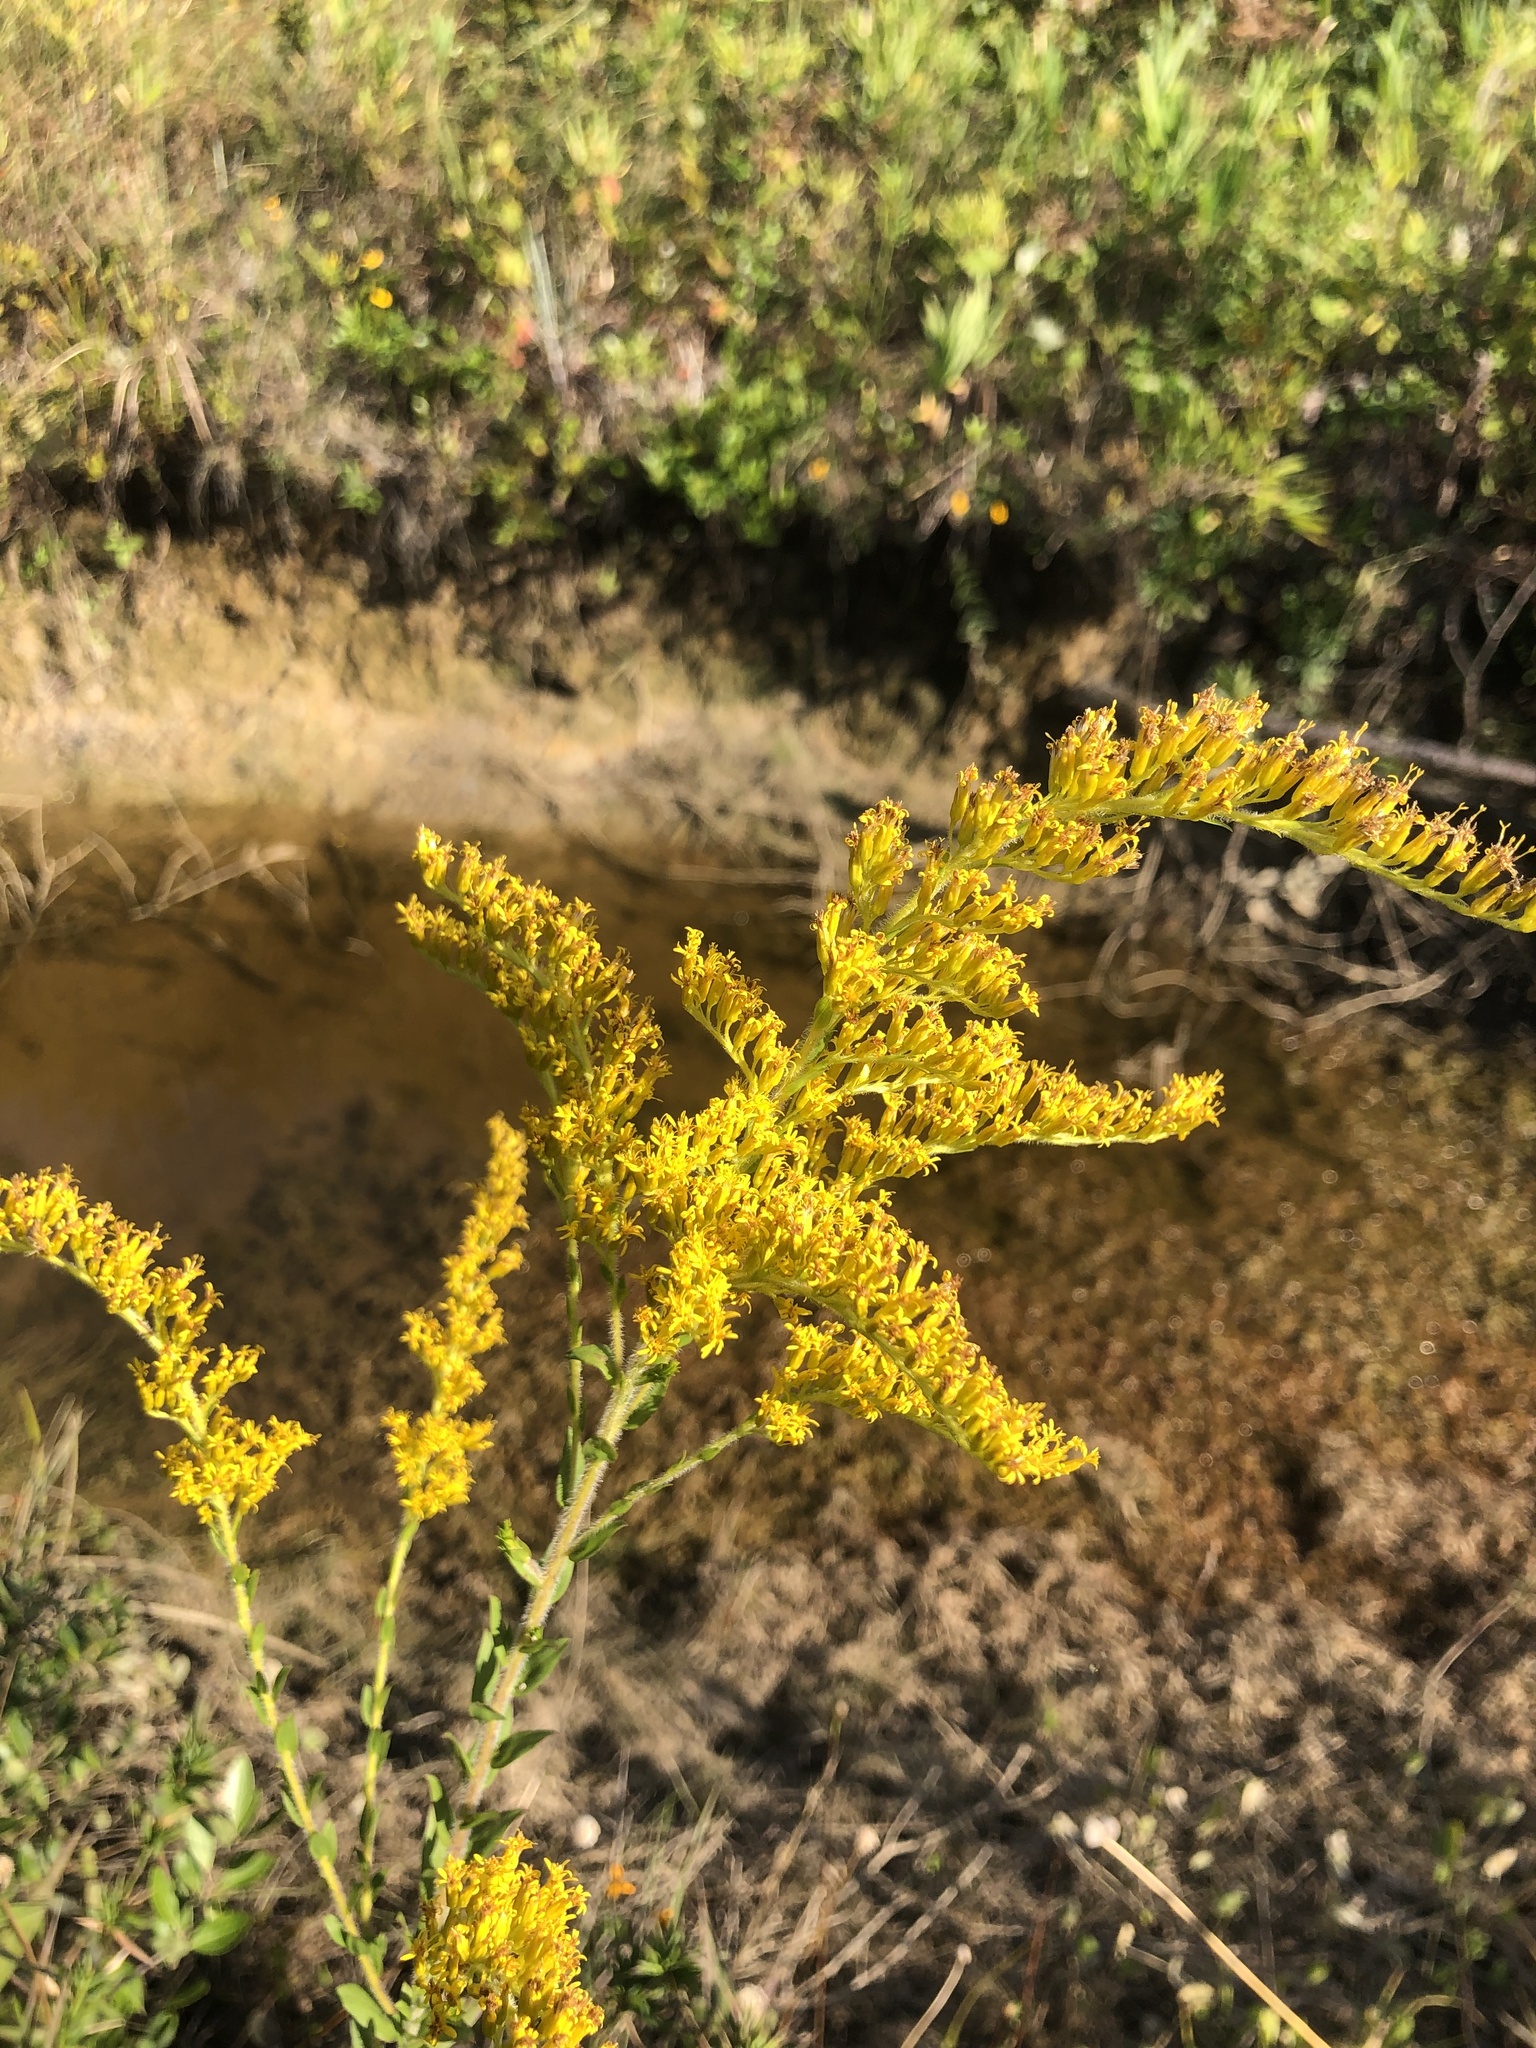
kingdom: Plantae
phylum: Tracheophyta
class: Magnoliopsida
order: Asterales
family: Asteraceae
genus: Solidago
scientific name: Solidago fistulosa
